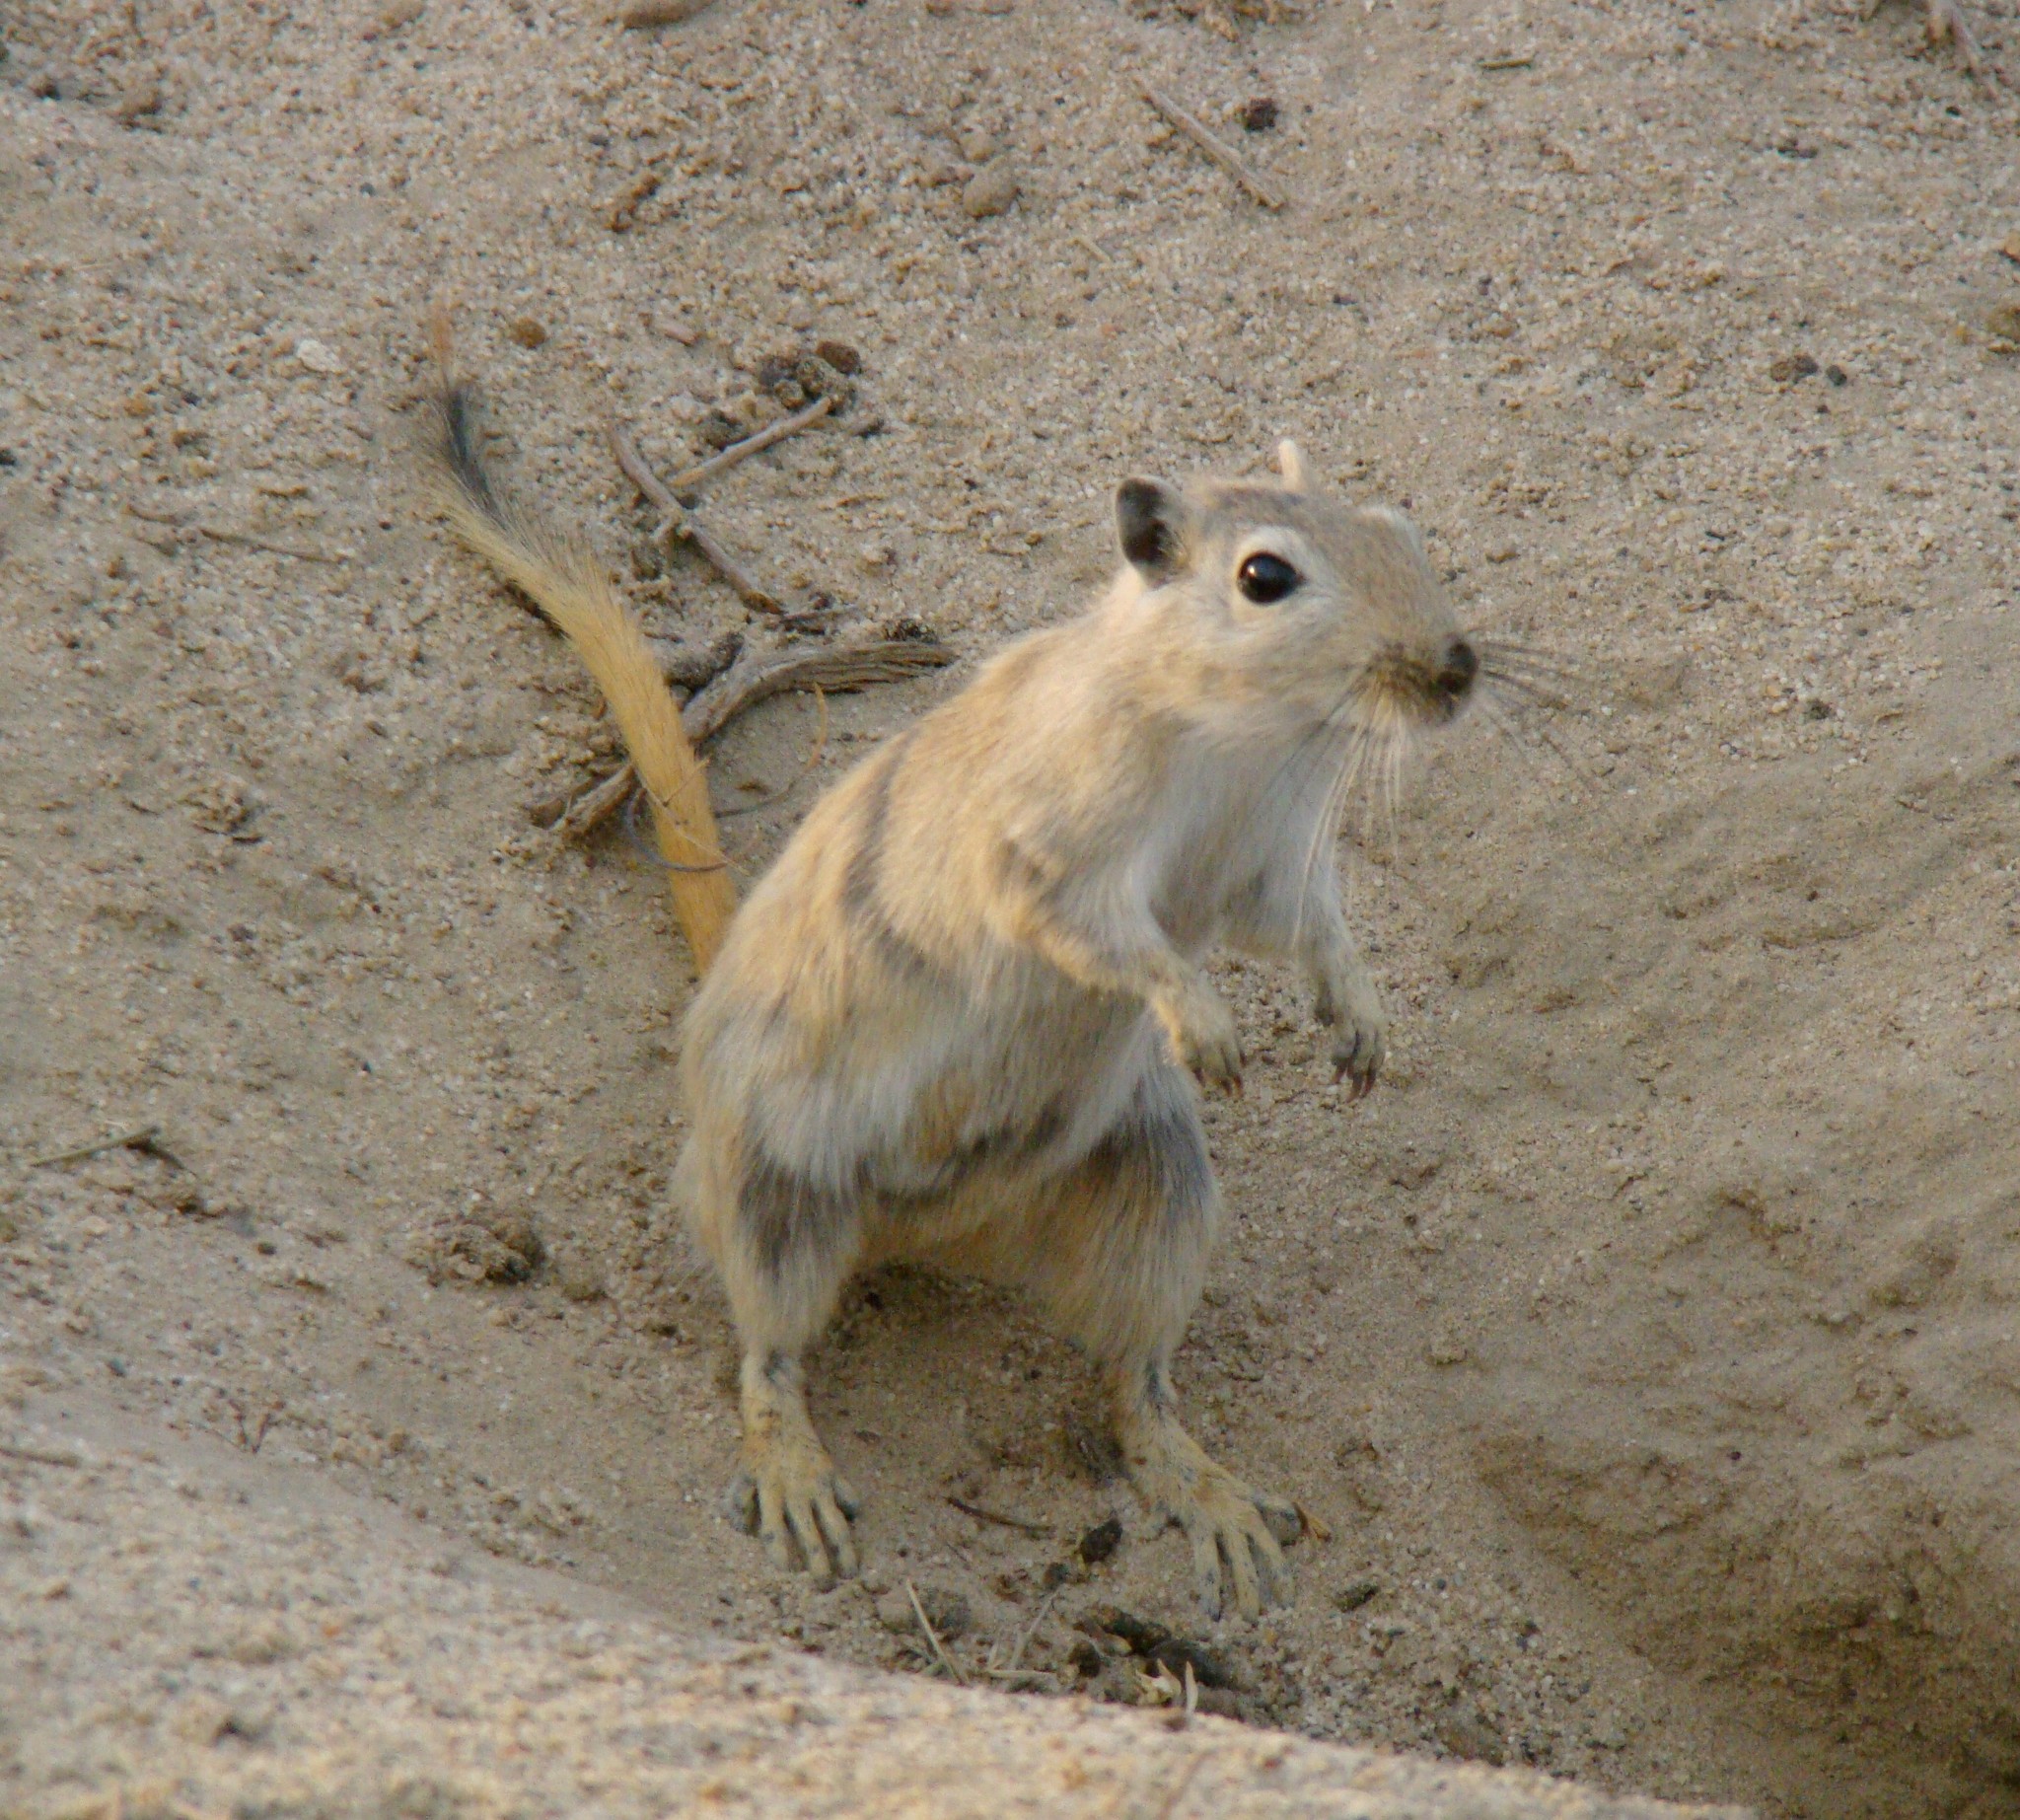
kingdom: Animalia
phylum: Chordata
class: Mammalia
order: Rodentia
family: Muridae
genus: Rhombomys
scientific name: Rhombomys opimus
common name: Great gerbil
